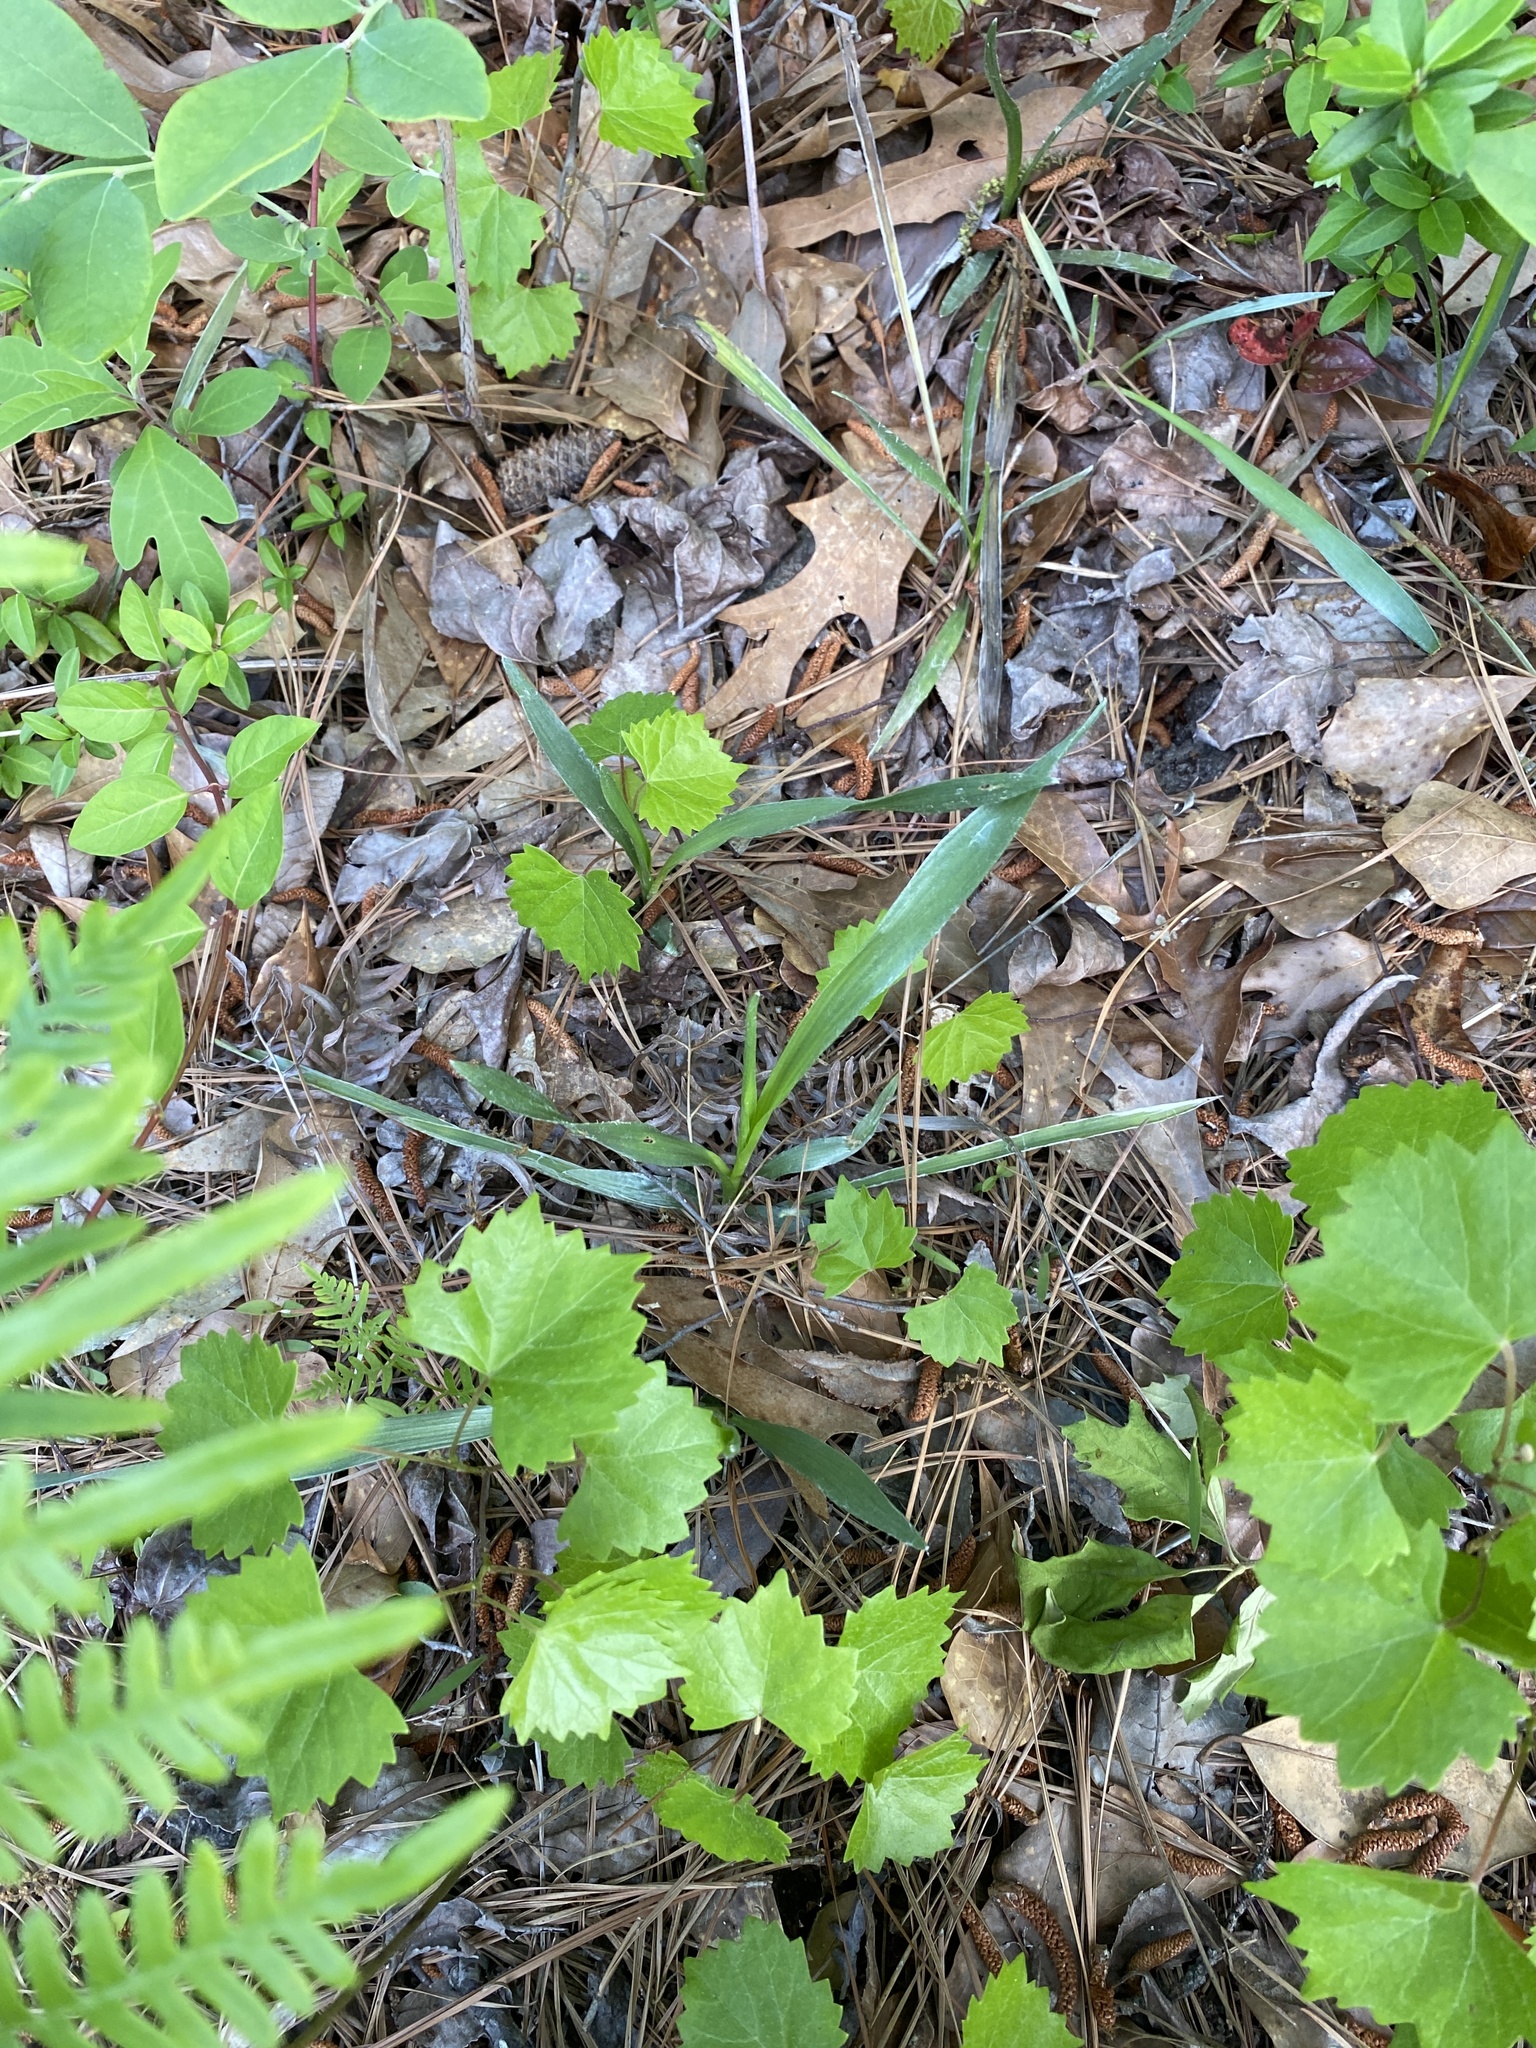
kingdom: Plantae
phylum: Tracheophyta
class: Magnoliopsida
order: Asterales
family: Asteraceae
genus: Pityopsis
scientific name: Pityopsis graminifolia
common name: Grass-leaf golden-aster
